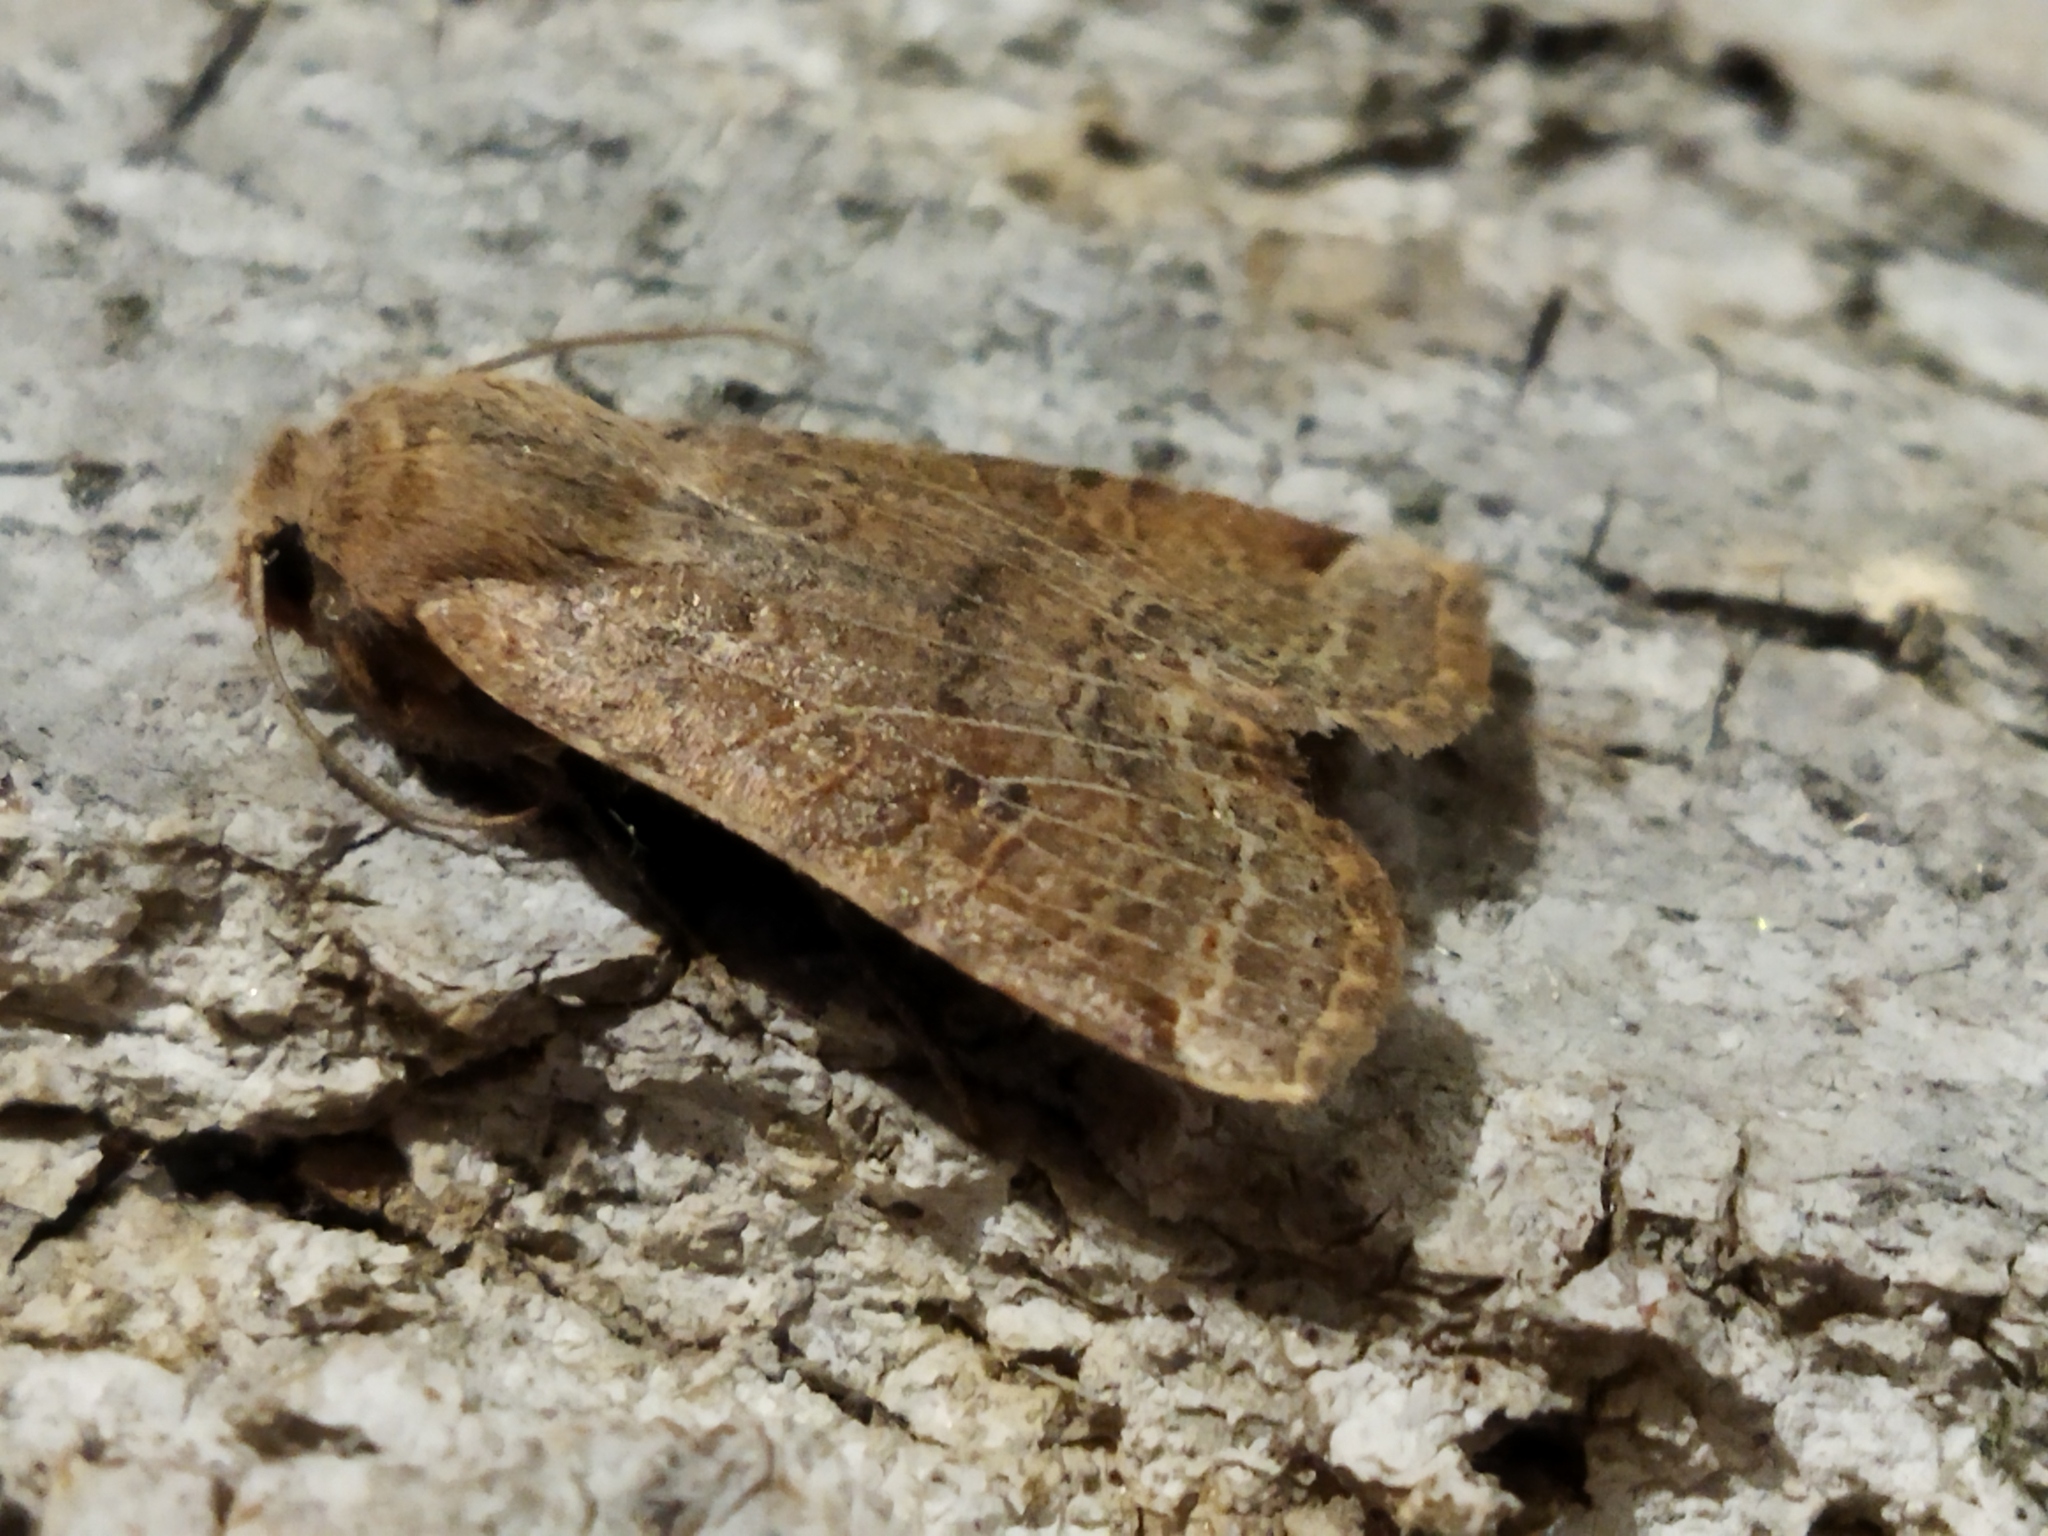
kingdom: Animalia
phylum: Arthropoda
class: Insecta
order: Lepidoptera
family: Noctuidae
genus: Conistra
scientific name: Conistra veronicae
